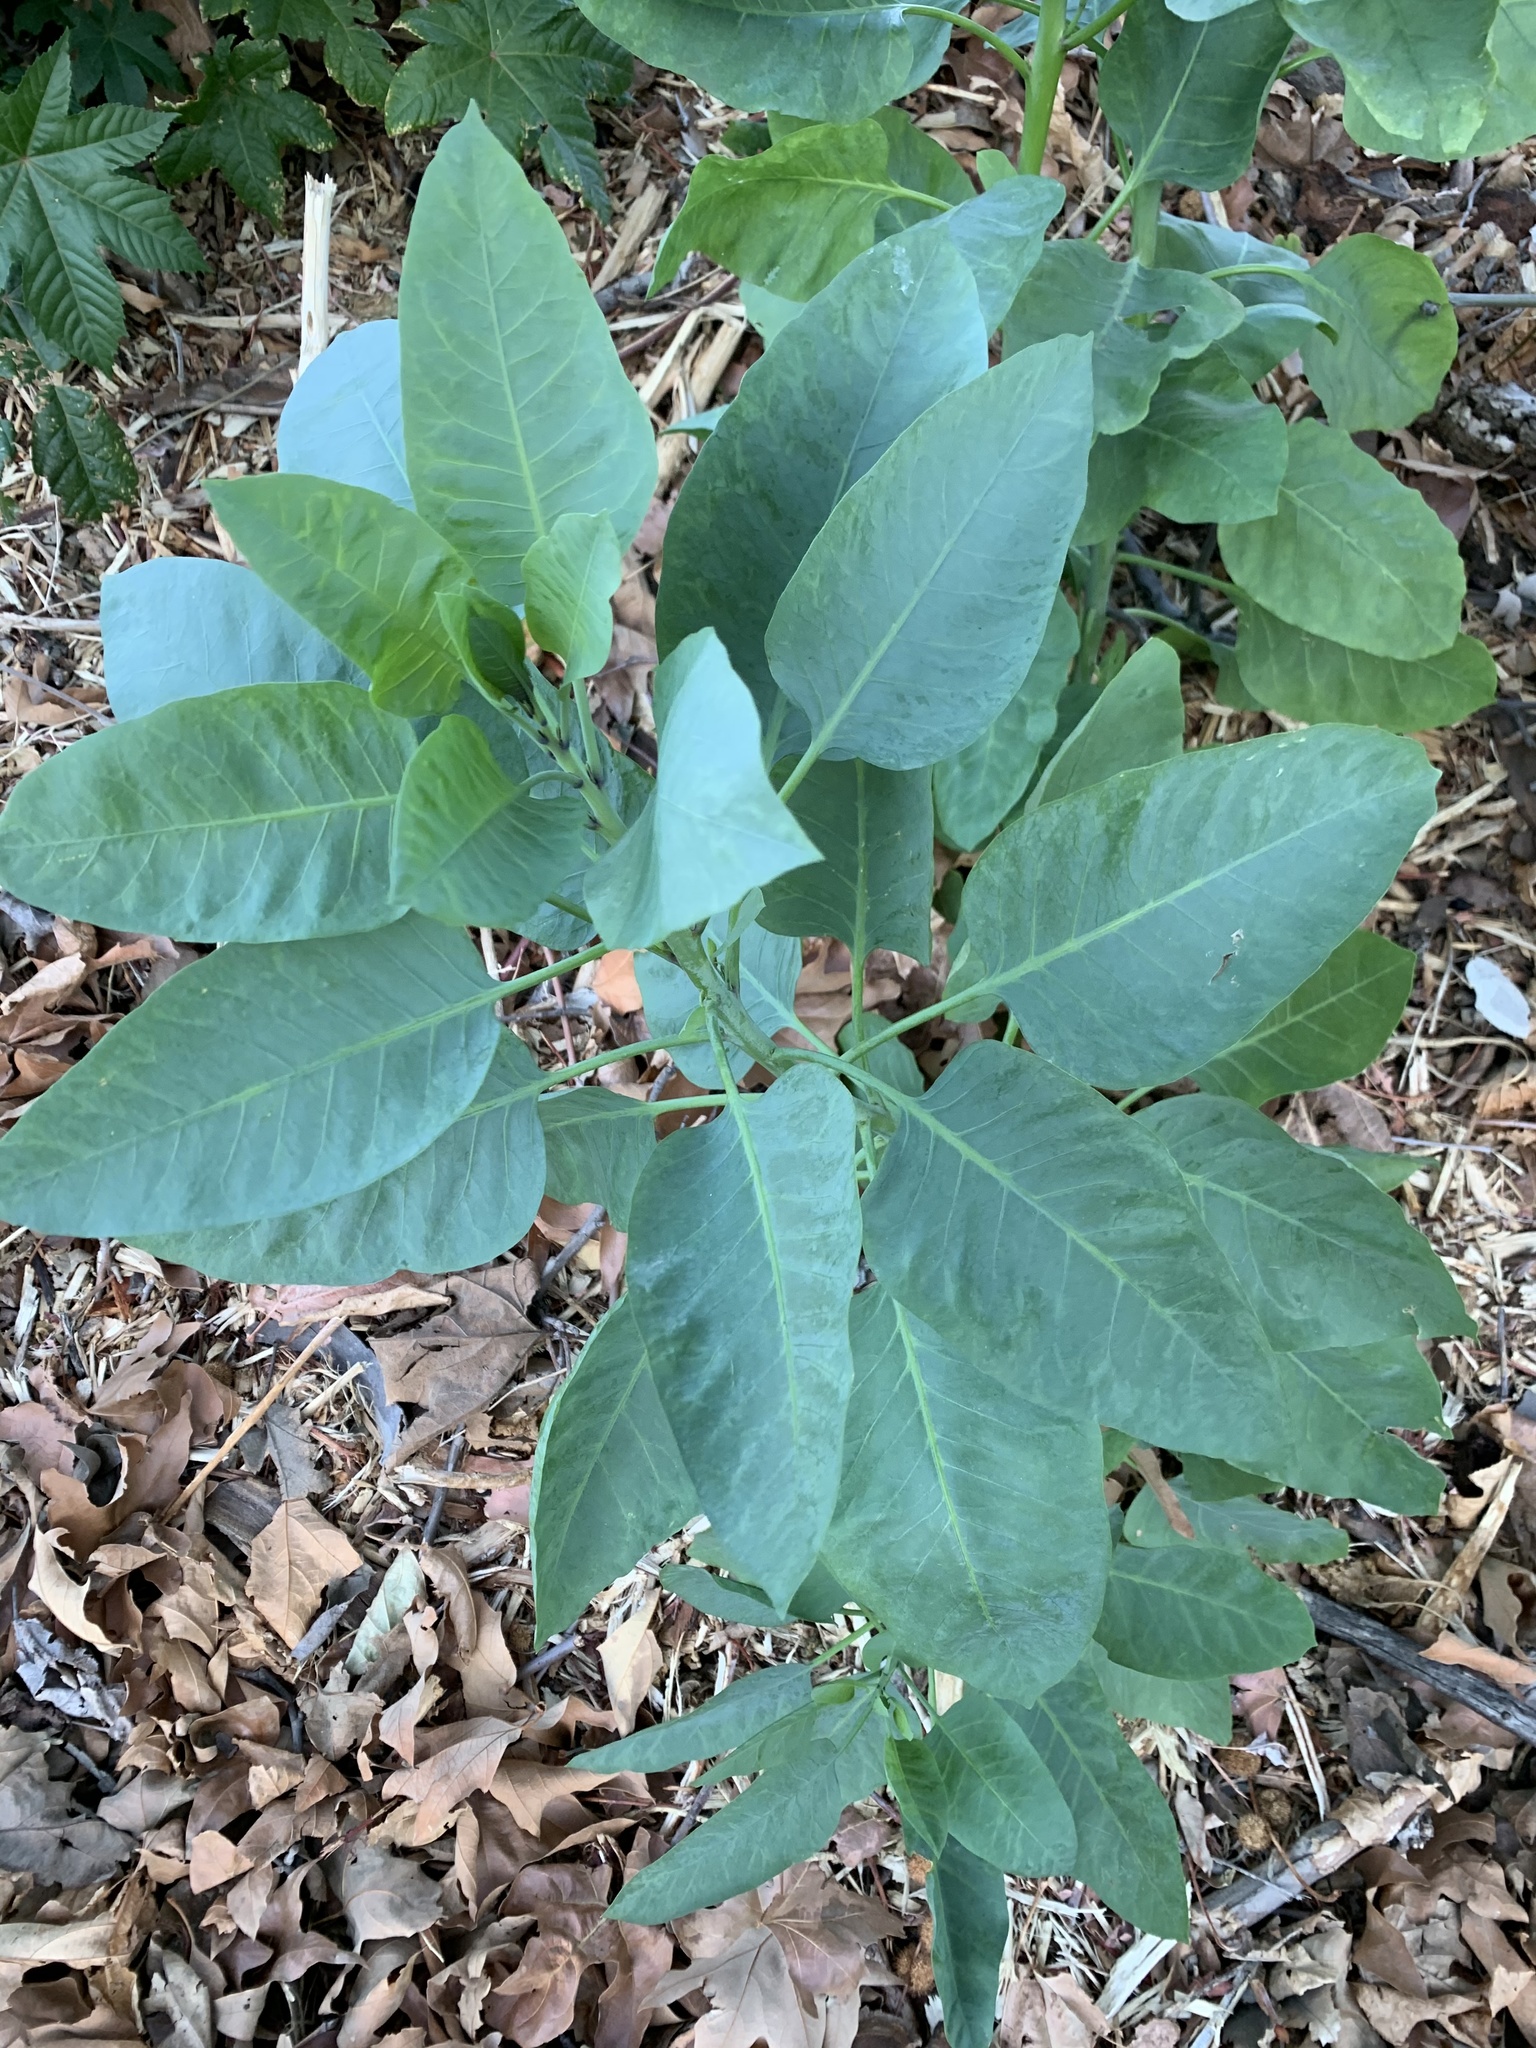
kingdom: Plantae
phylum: Tracheophyta
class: Magnoliopsida
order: Solanales
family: Solanaceae
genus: Nicotiana
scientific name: Nicotiana glauca
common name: Tree tobacco
